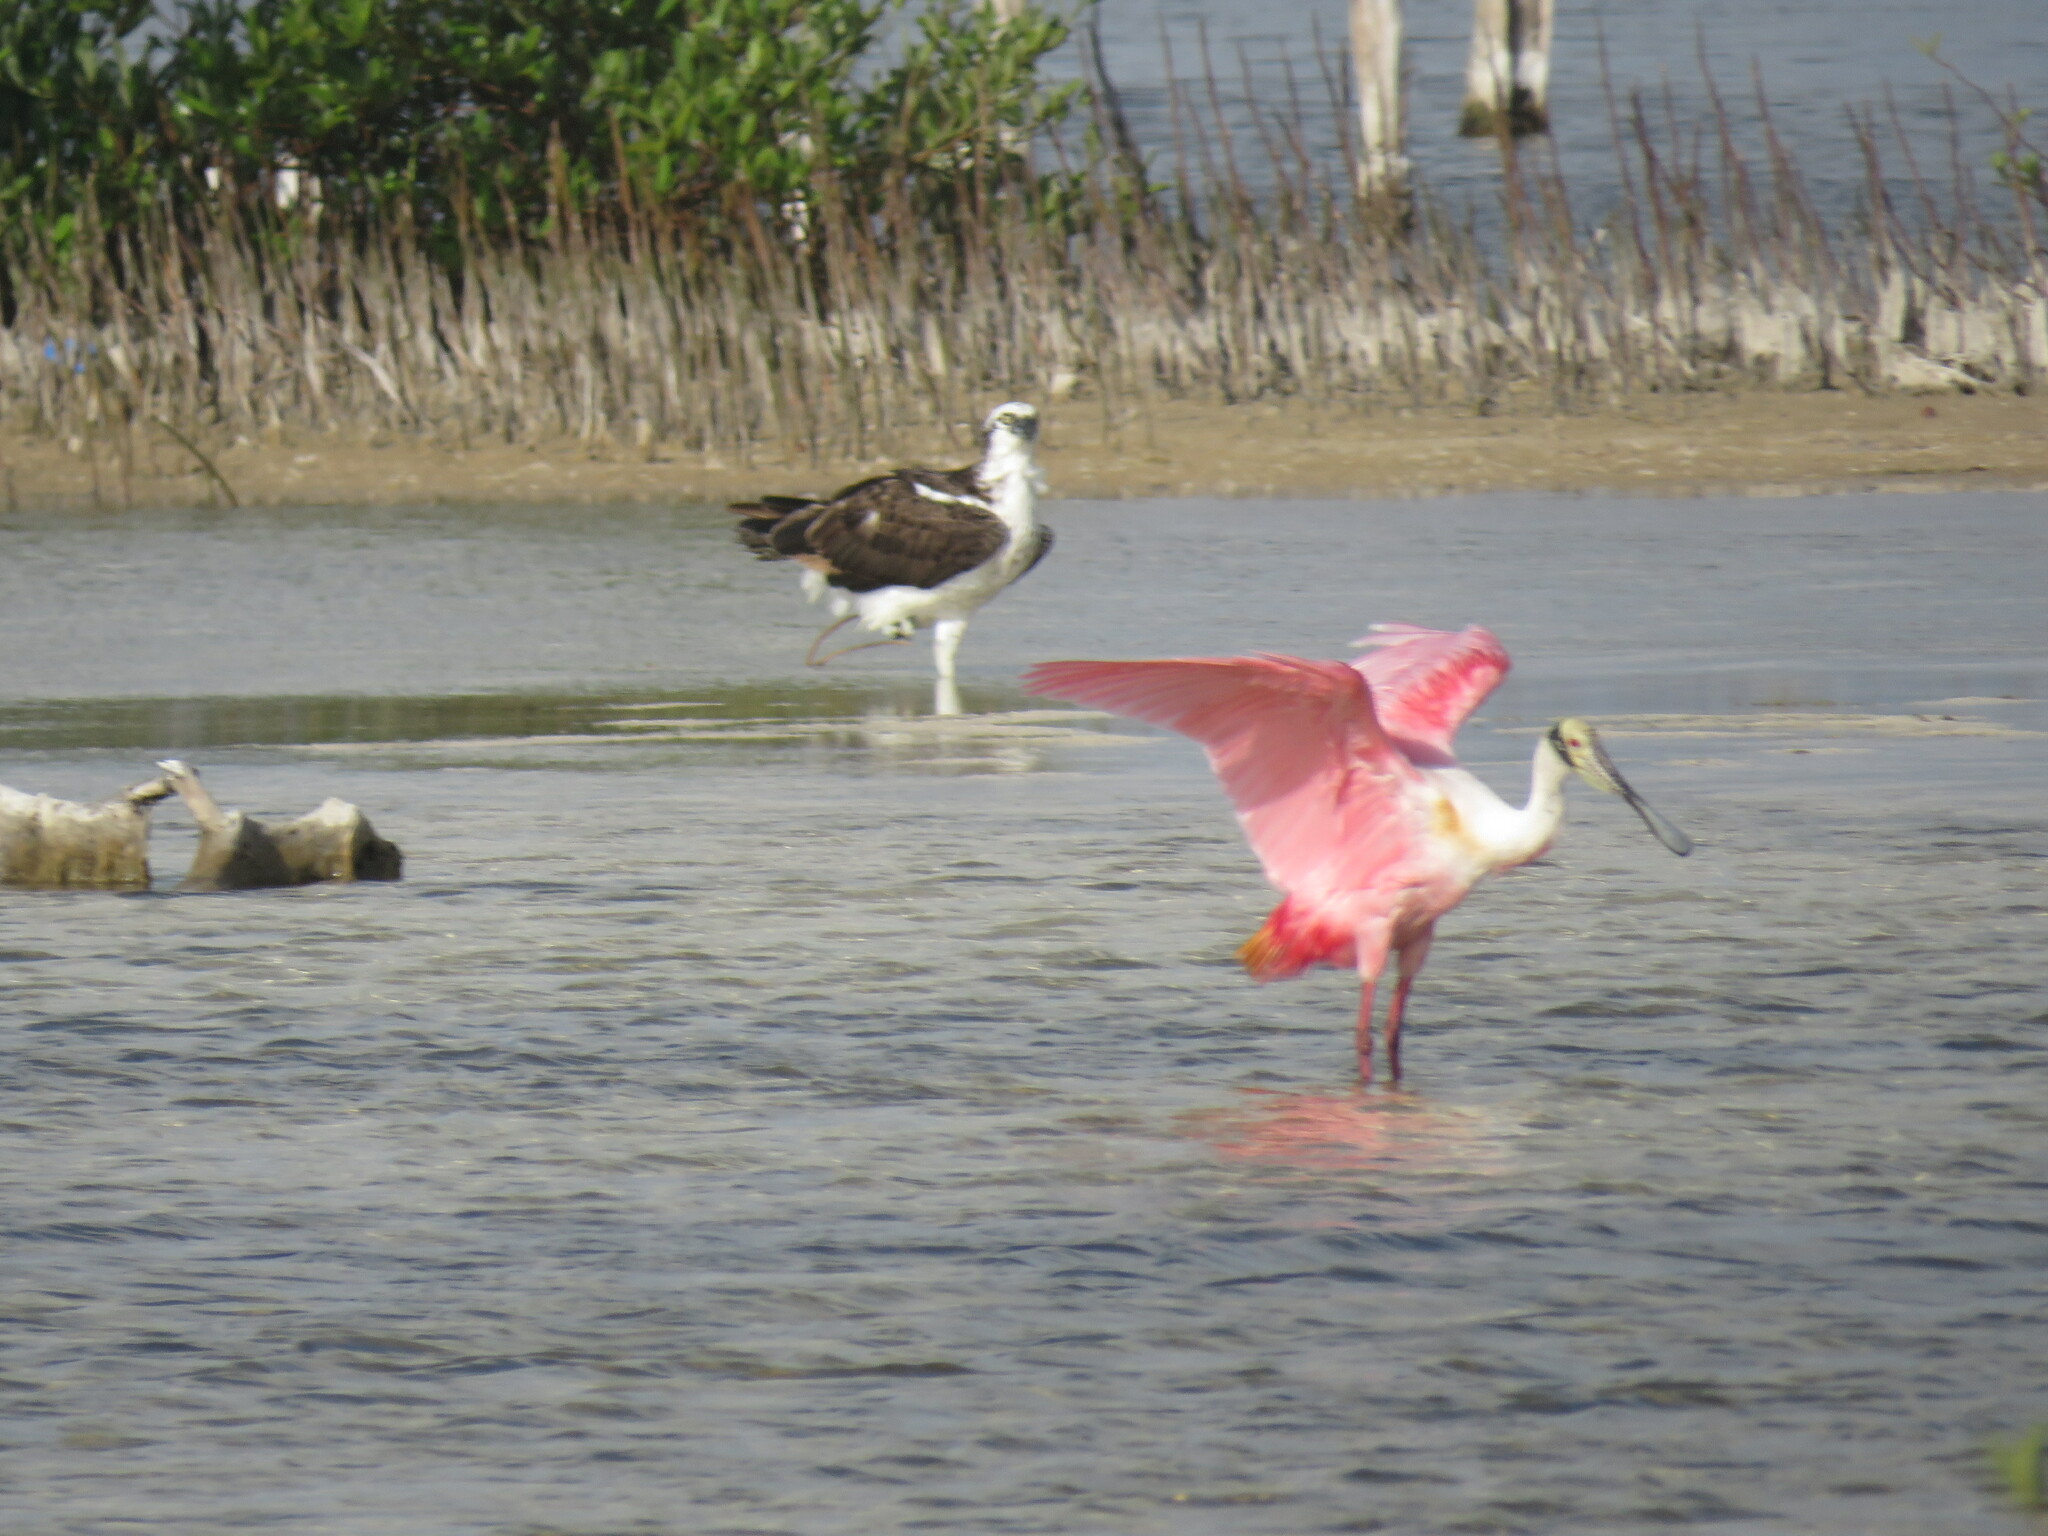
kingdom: Animalia
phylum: Chordata
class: Aves
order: Pelecaniformes
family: Threskiornithidae
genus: Platalea
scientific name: Platalea ajaja
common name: Roseate spoonbill
